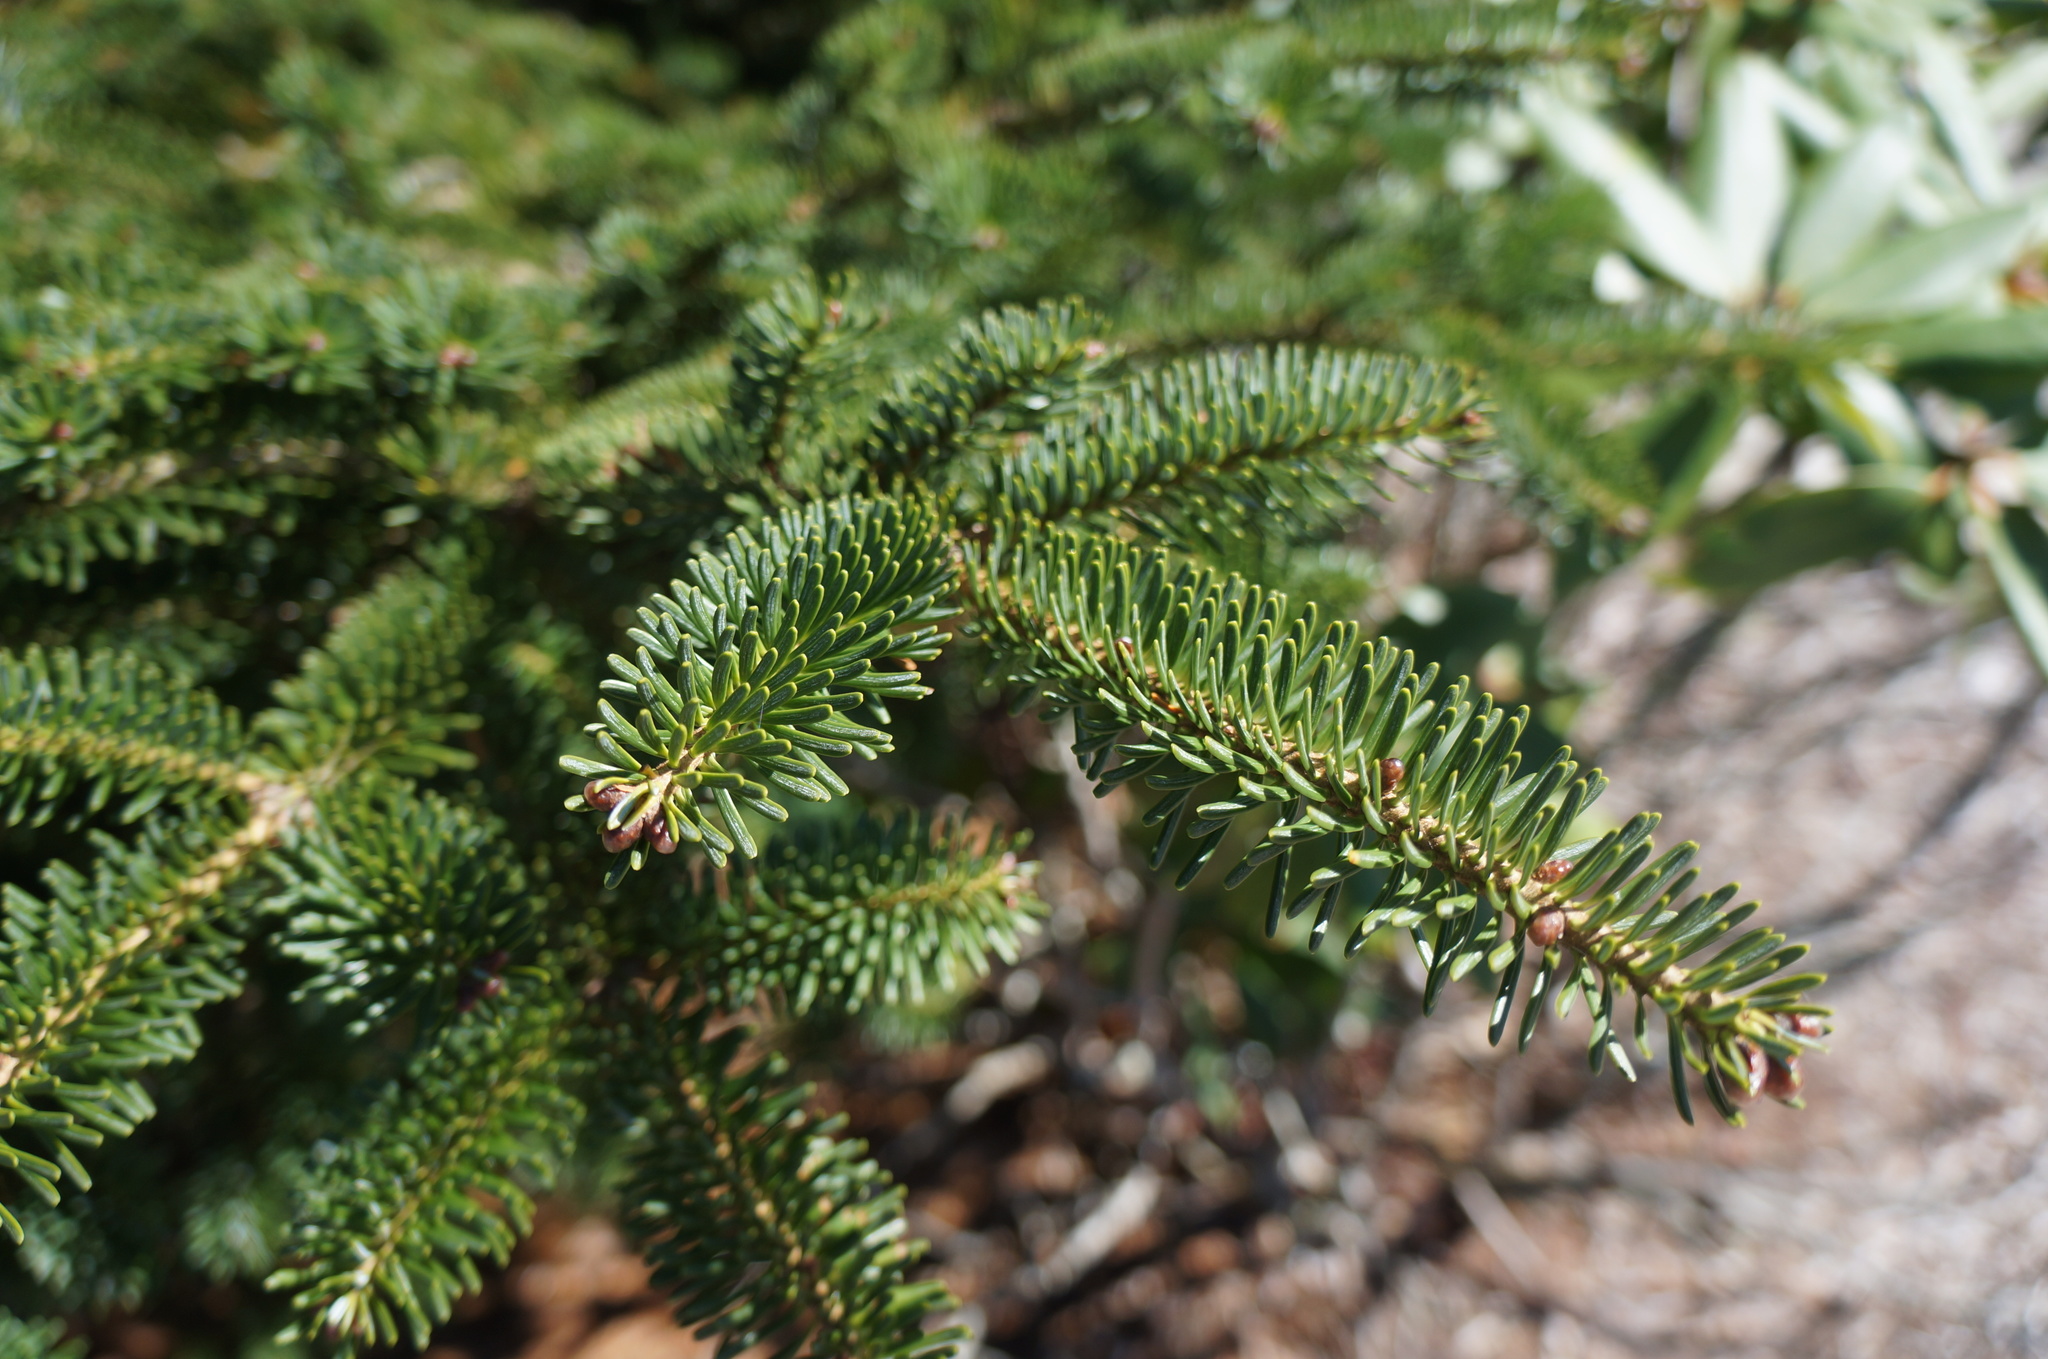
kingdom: Plantae
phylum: Tracheophyta
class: Pinopsida
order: Pinales
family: Pinaceae
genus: Abies
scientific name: Abies fraseri
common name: Fraser fir
